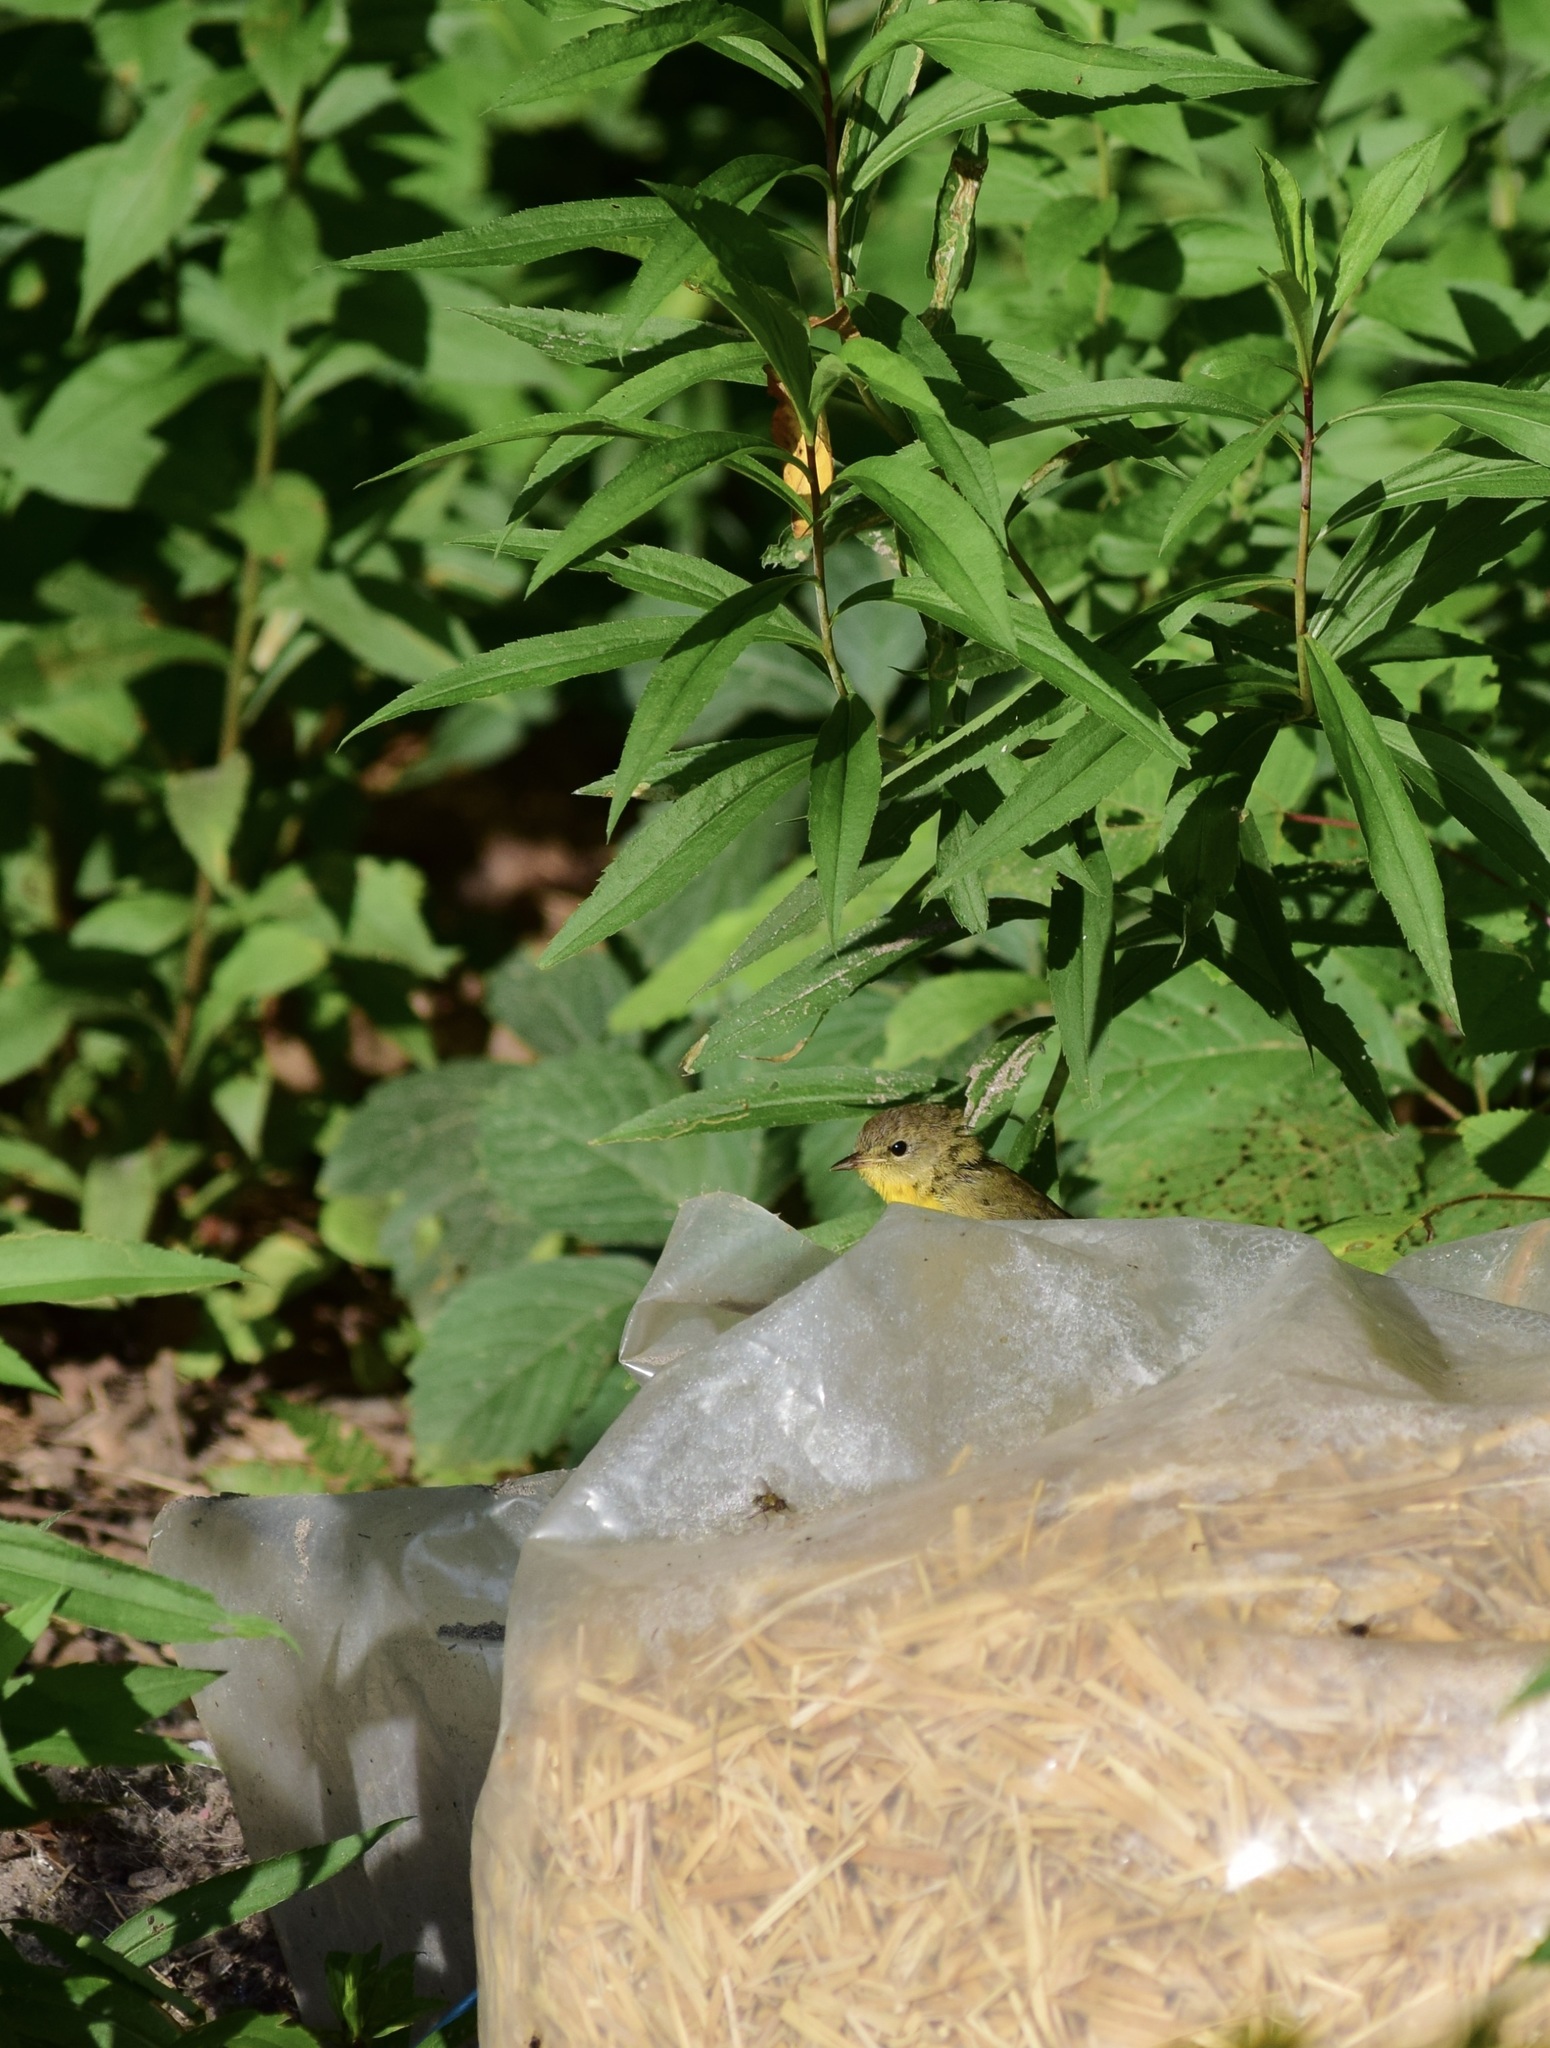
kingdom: Animalia
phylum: Chordata
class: Aves
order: Passeriformes
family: Parulidae
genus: Geothlypis
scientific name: Geothlypis trichas
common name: Common yellowthroat
